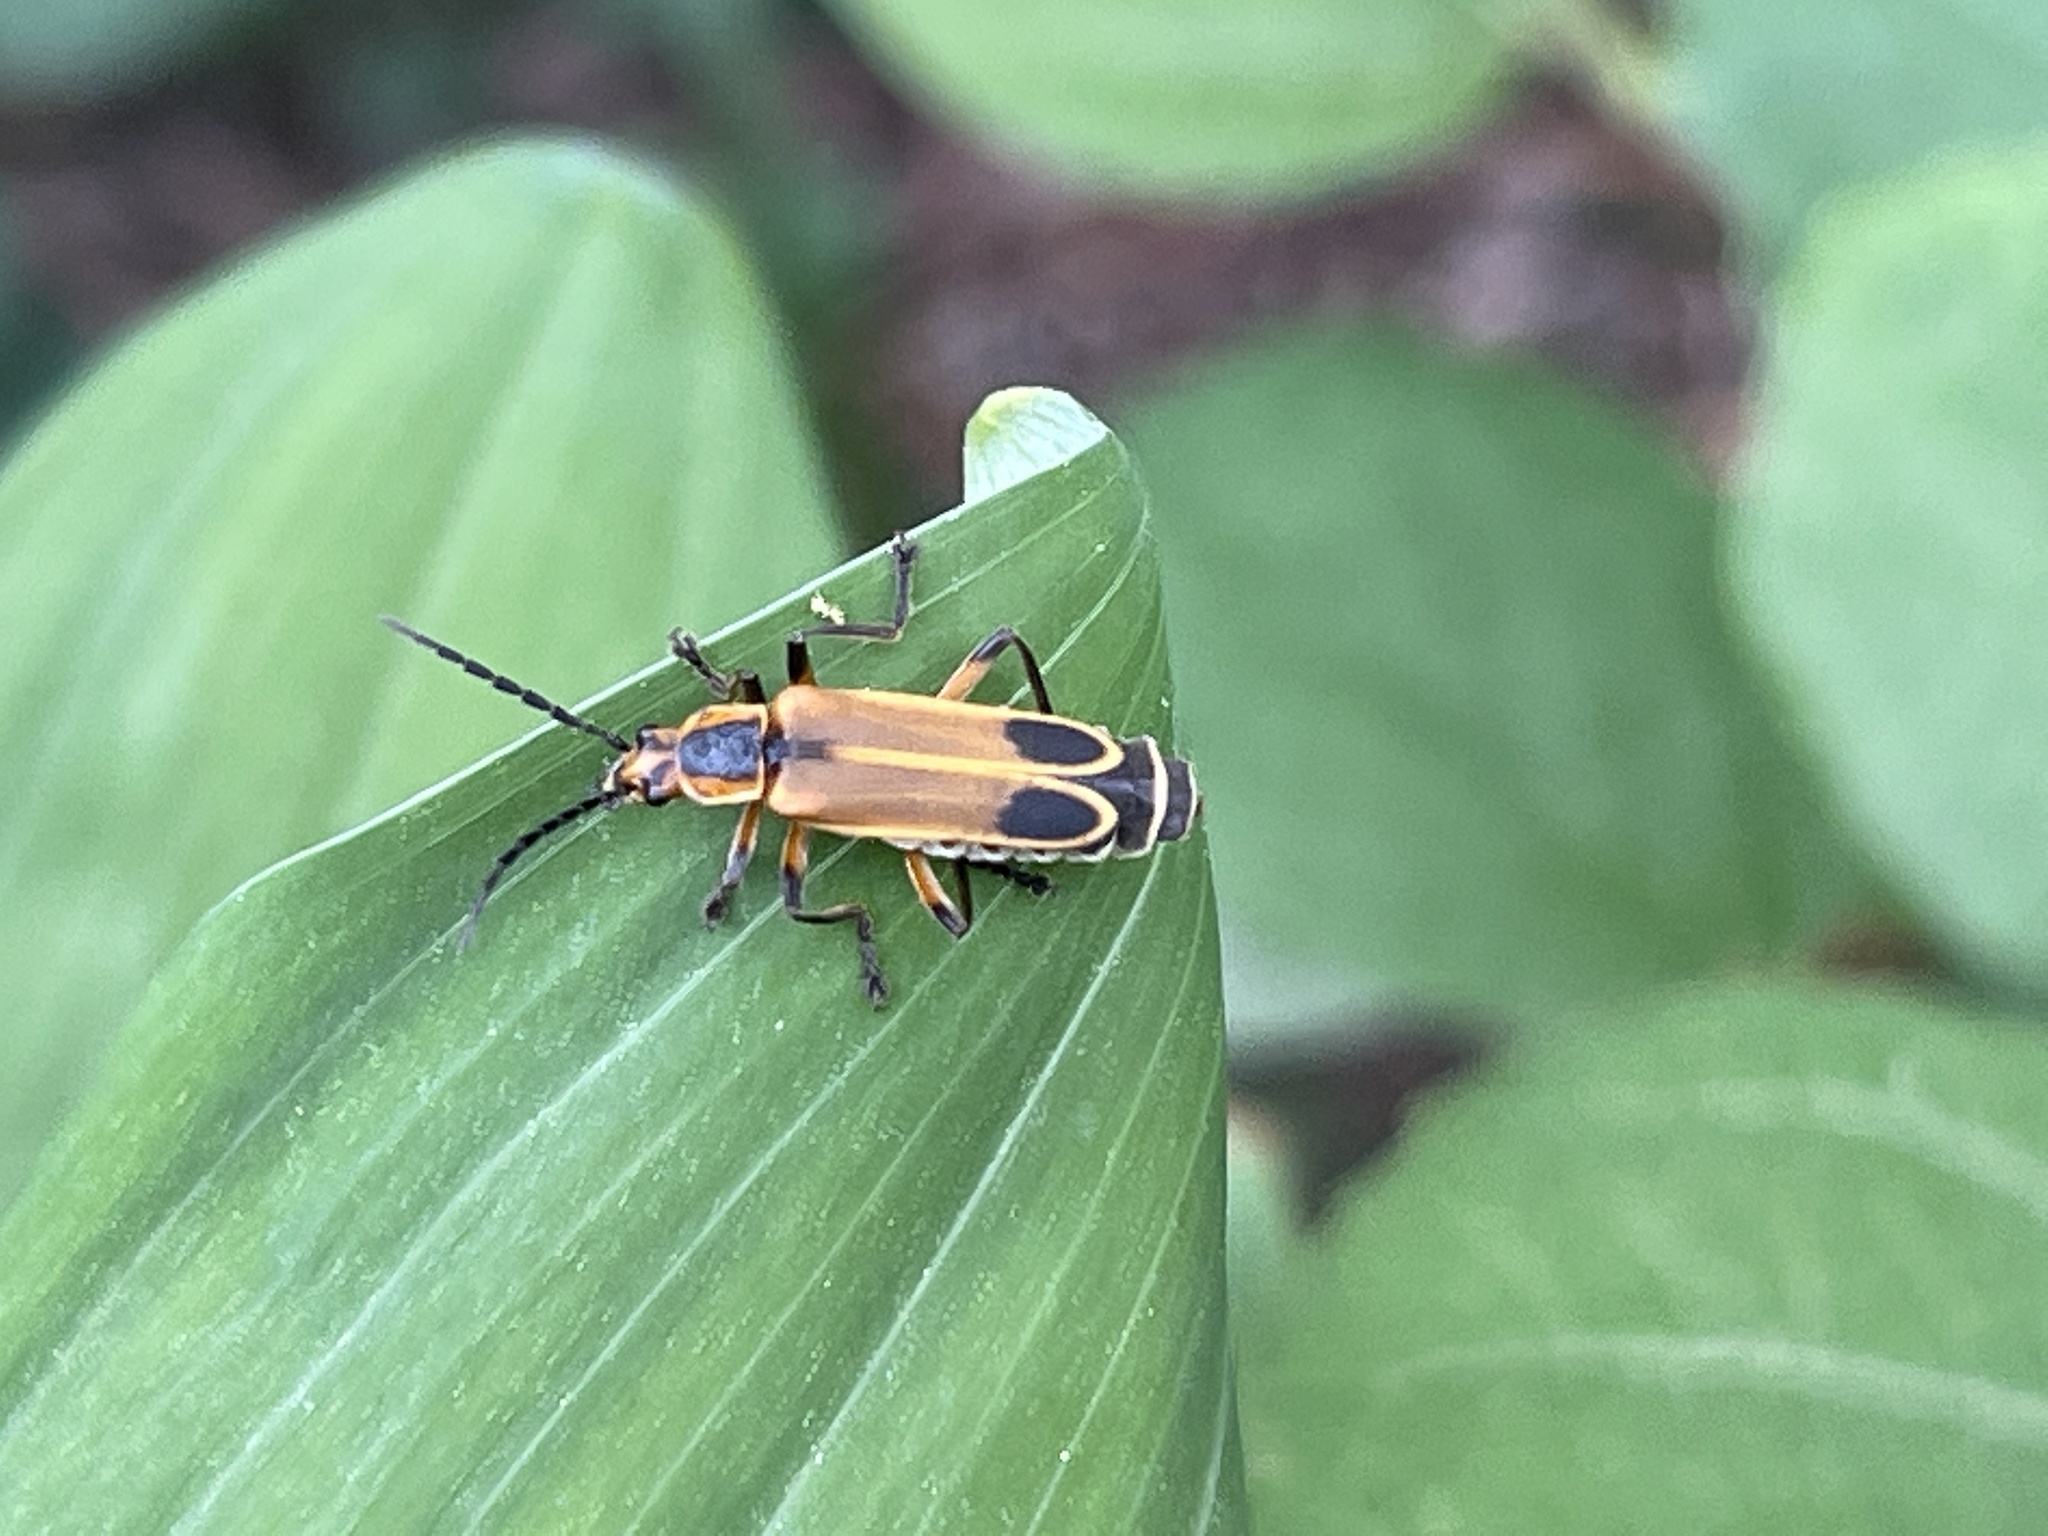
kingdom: Animalia
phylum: Arthropoda
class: Insecta
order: Coleoptera
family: Cantharidae
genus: Chauliognathus
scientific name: Chauliognathus marginatus
